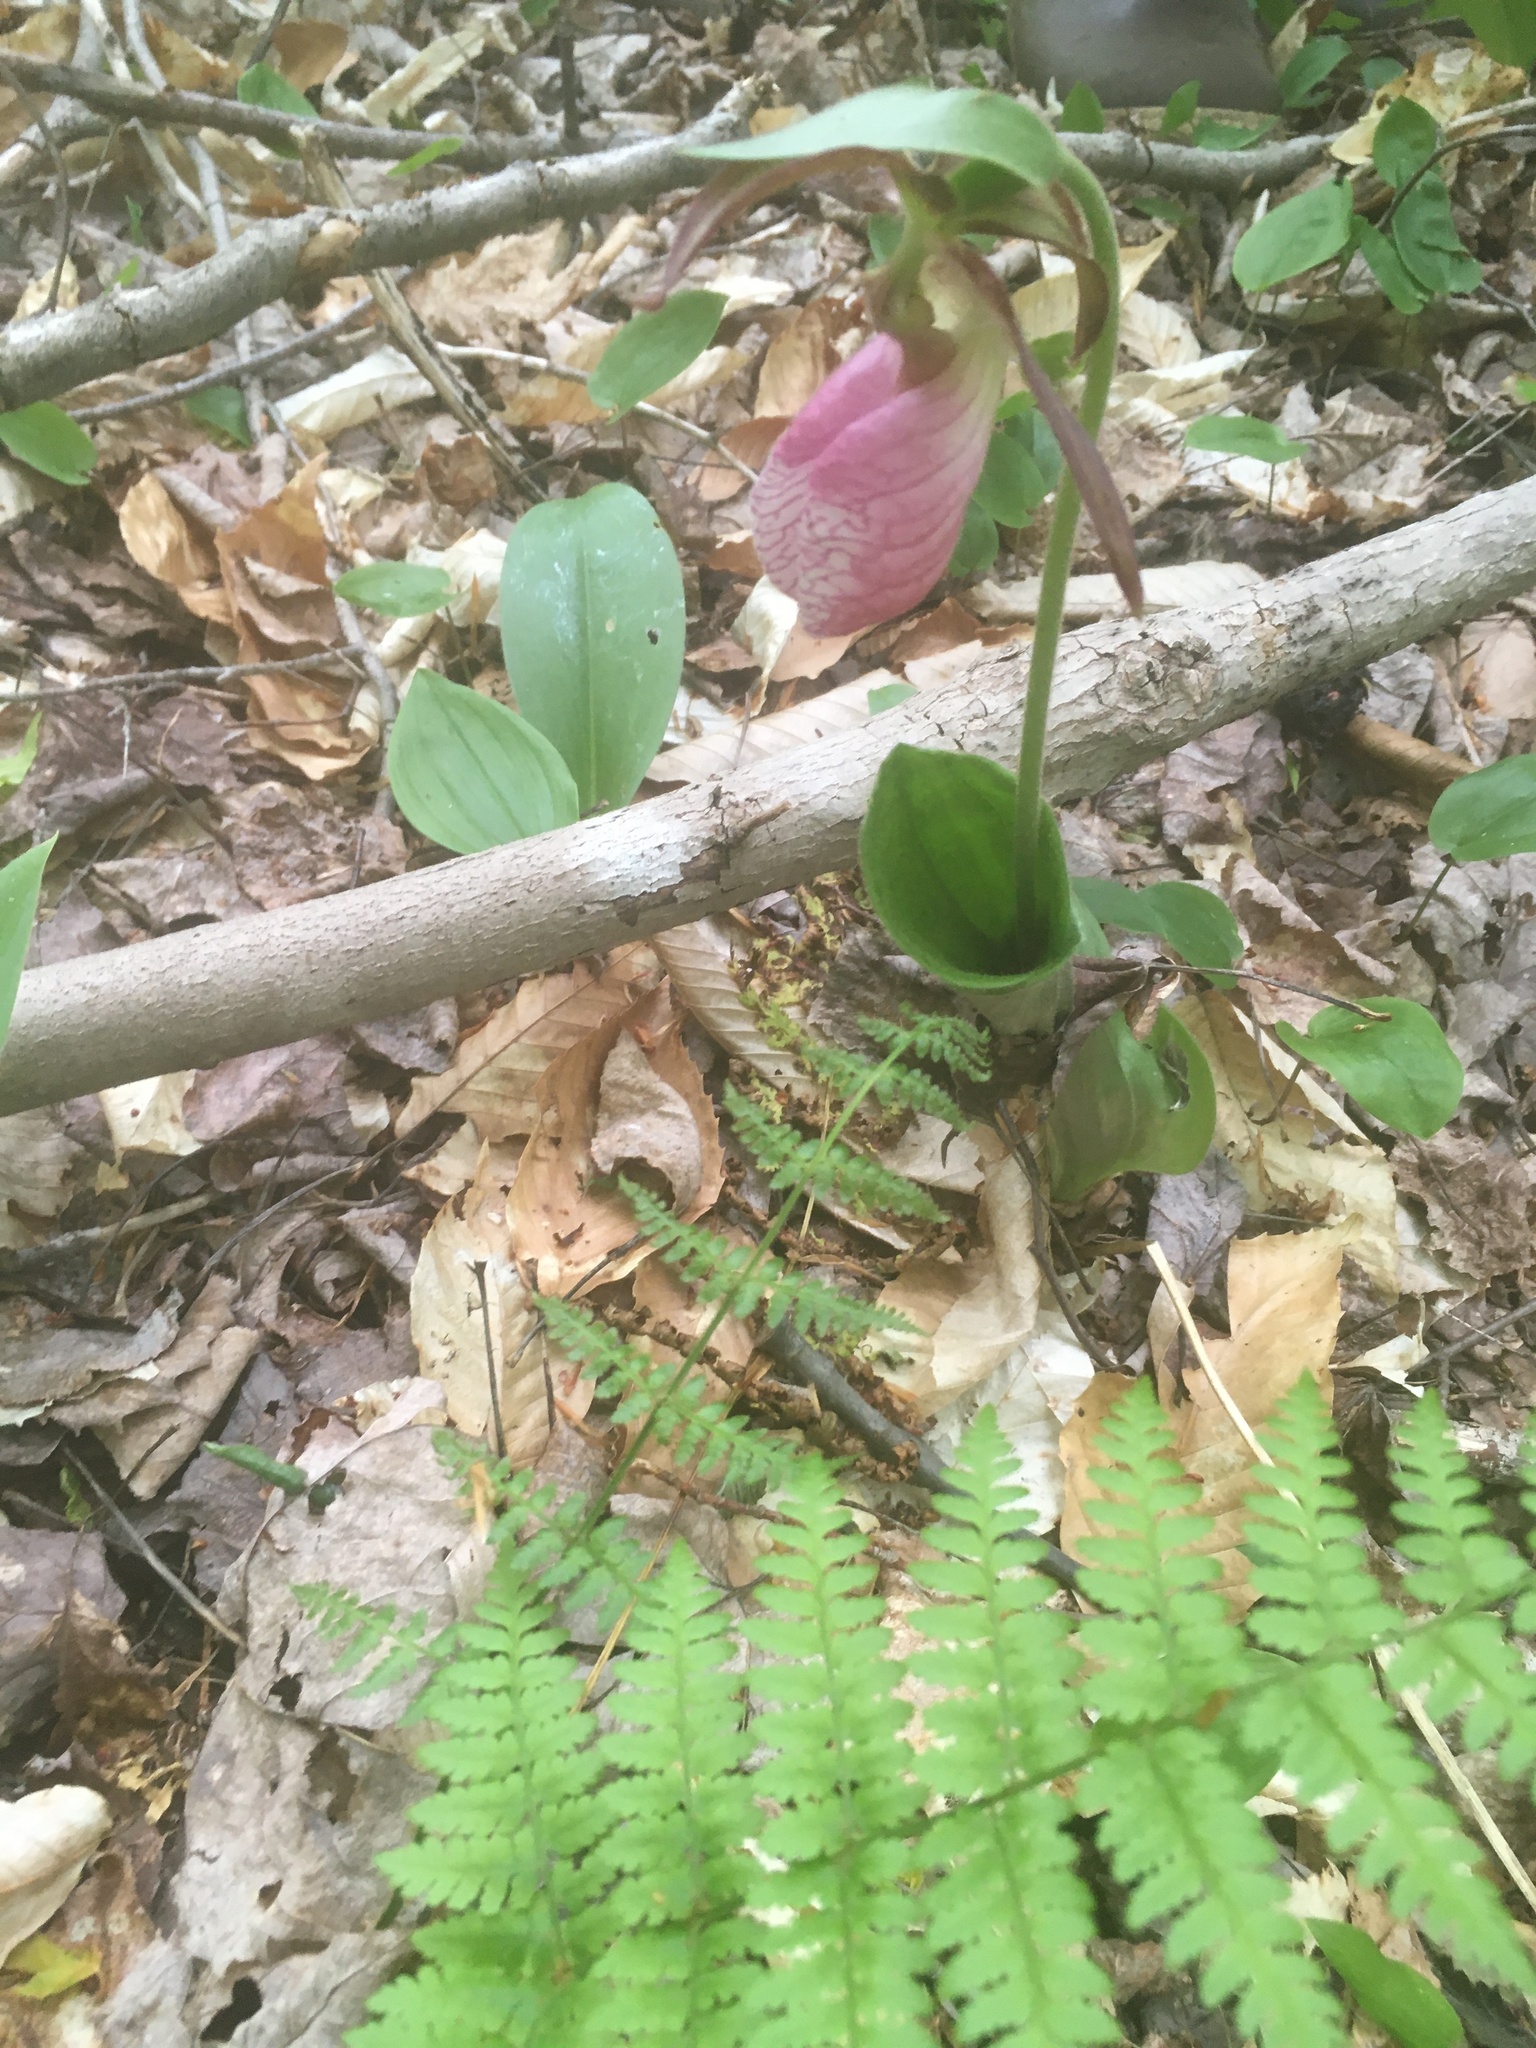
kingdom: Plantae
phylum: Tracheophyta
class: Liliopsida
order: Asparagales
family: Orchidaceae
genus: Cypripedium
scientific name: Cypripedium acaule
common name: Pink lady's-slipper
